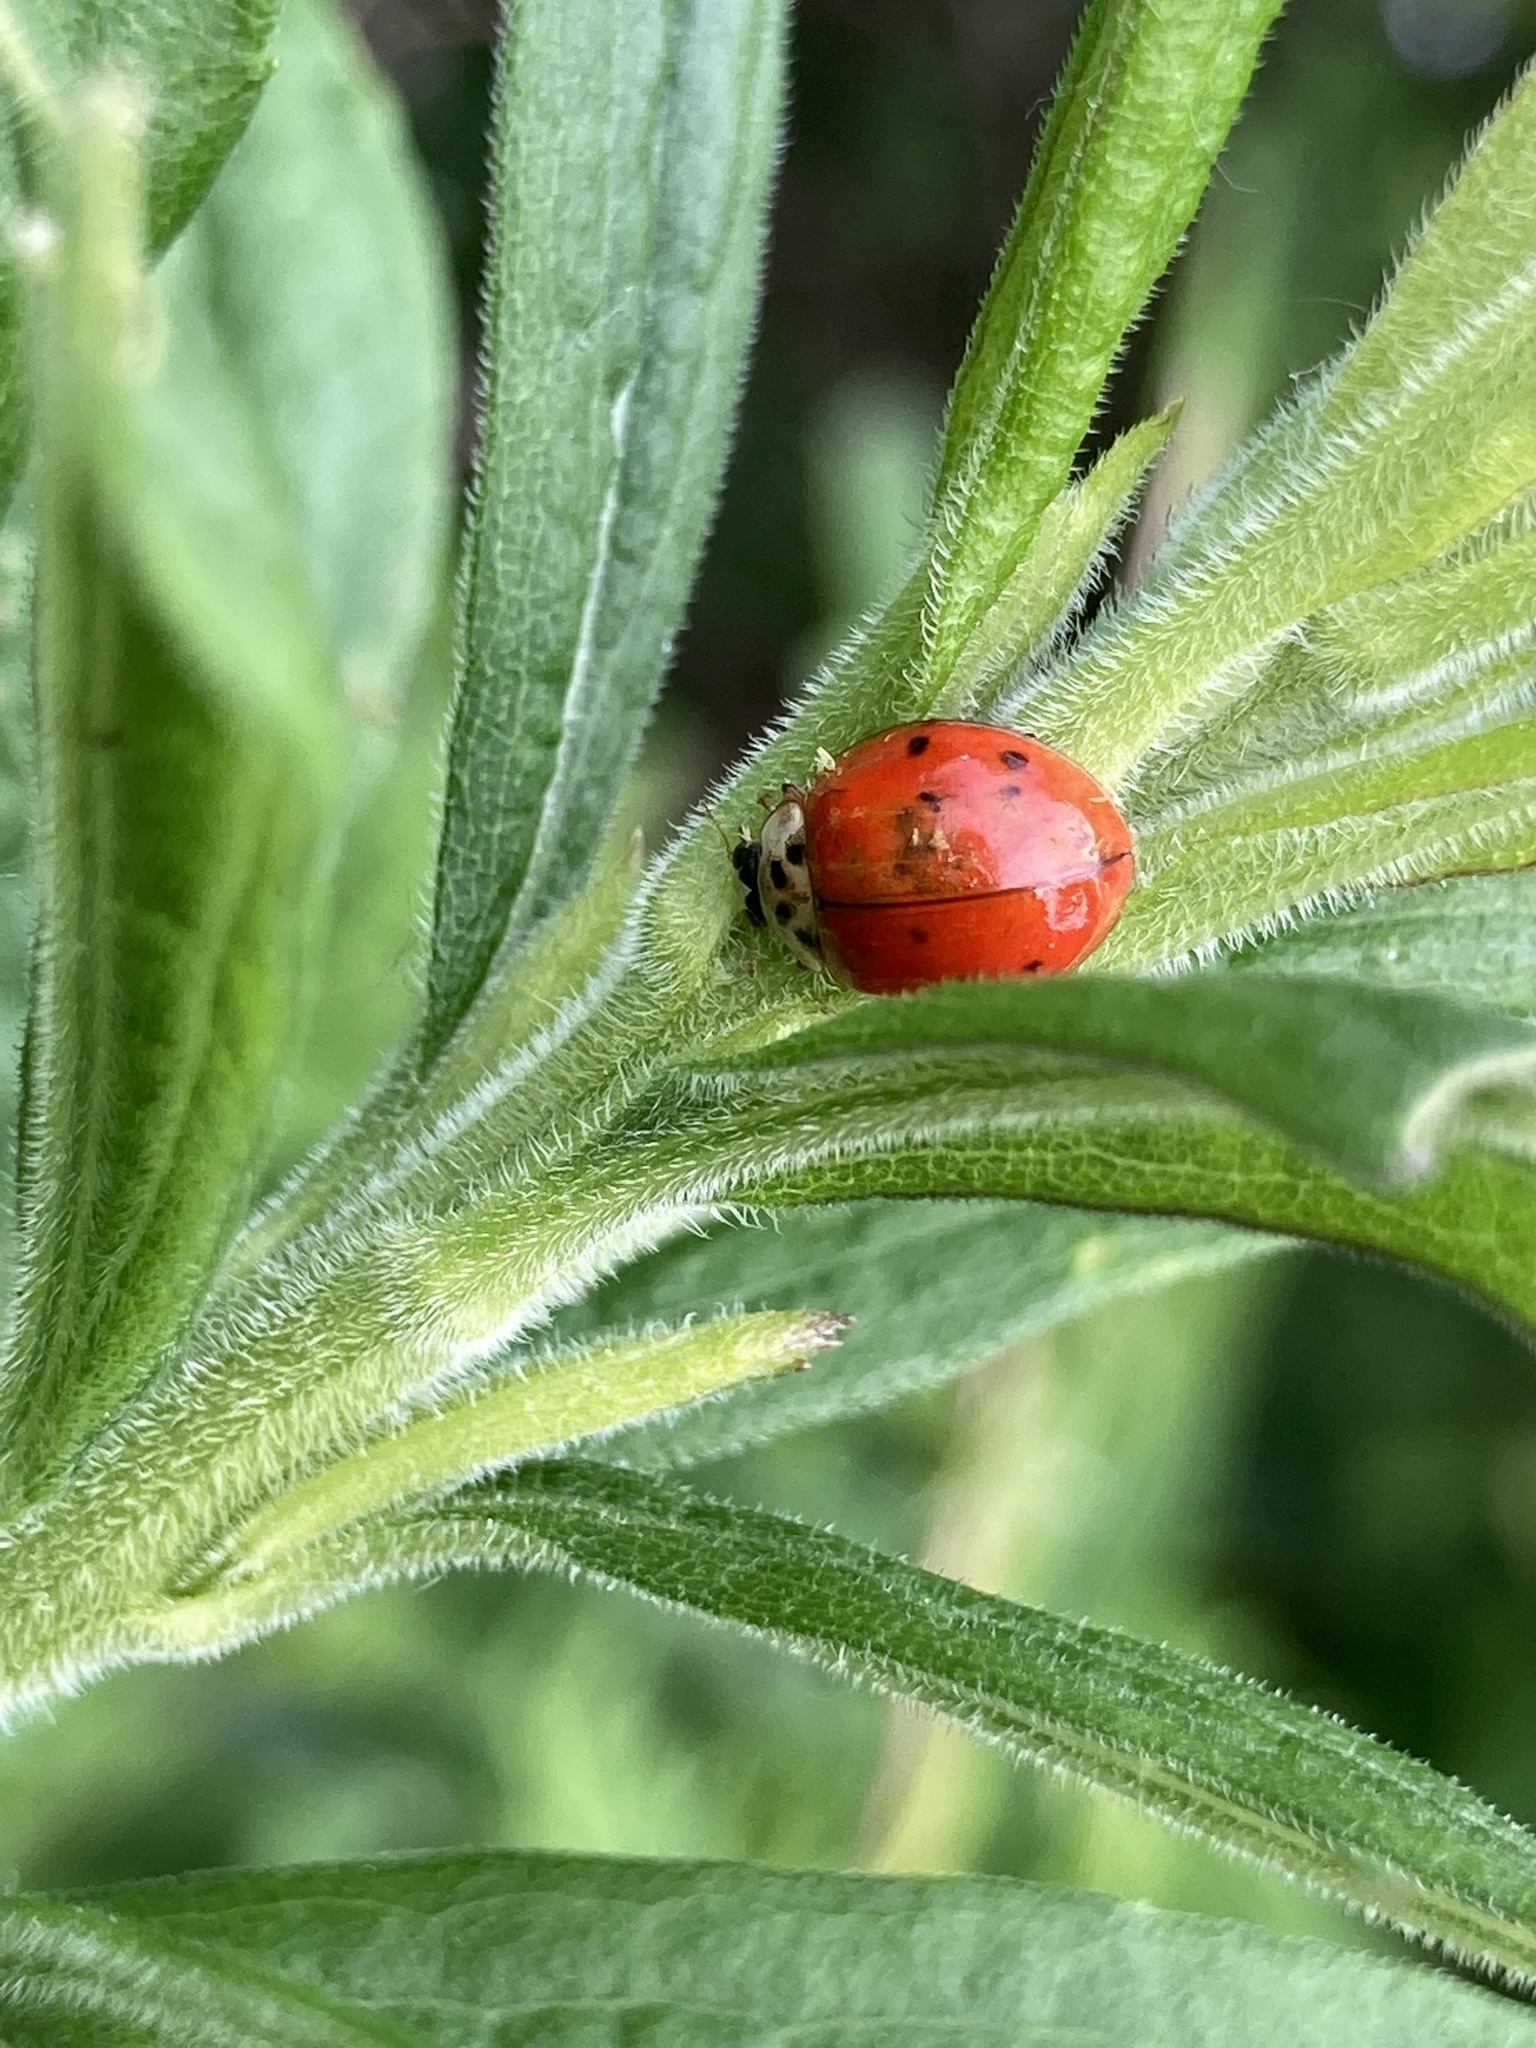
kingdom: Animalia
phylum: Arthropoda
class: Insecta
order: Coleoptera
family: Coccinellidae
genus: Harmonia
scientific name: Harmonia axyridis
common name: Harlequin ladybird
